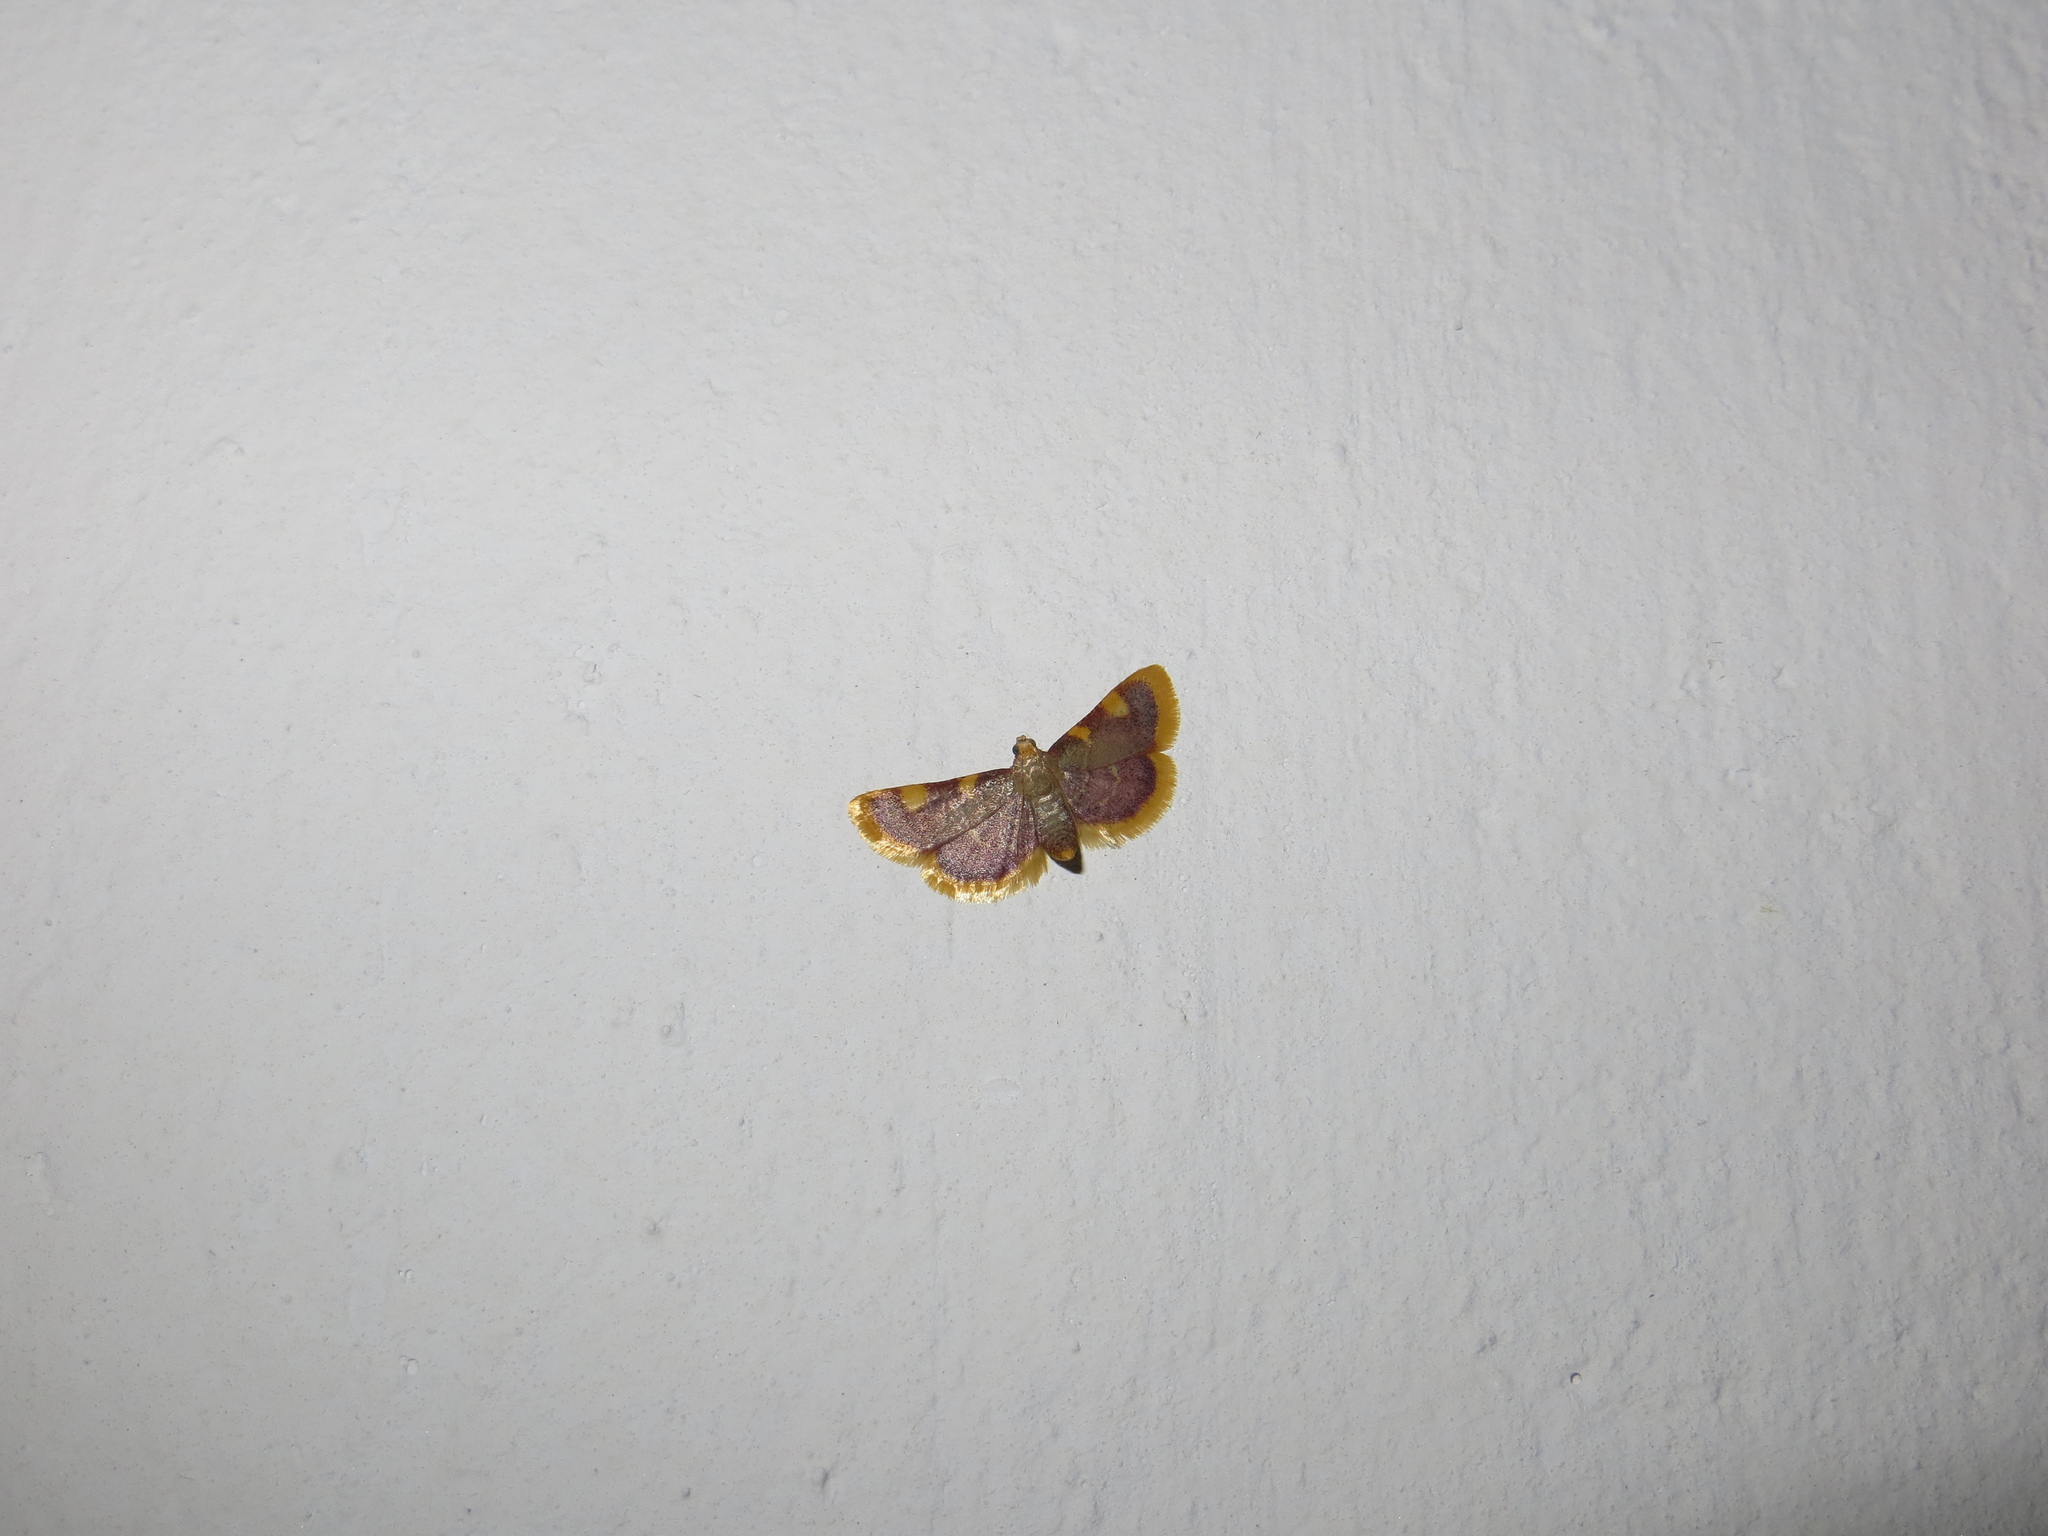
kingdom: Animalia
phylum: Arthropoda
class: Insecta
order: Lepidoptera
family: Pyralidae
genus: Hypsopygia
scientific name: Hypsopygia costalis
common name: Gold triangle
